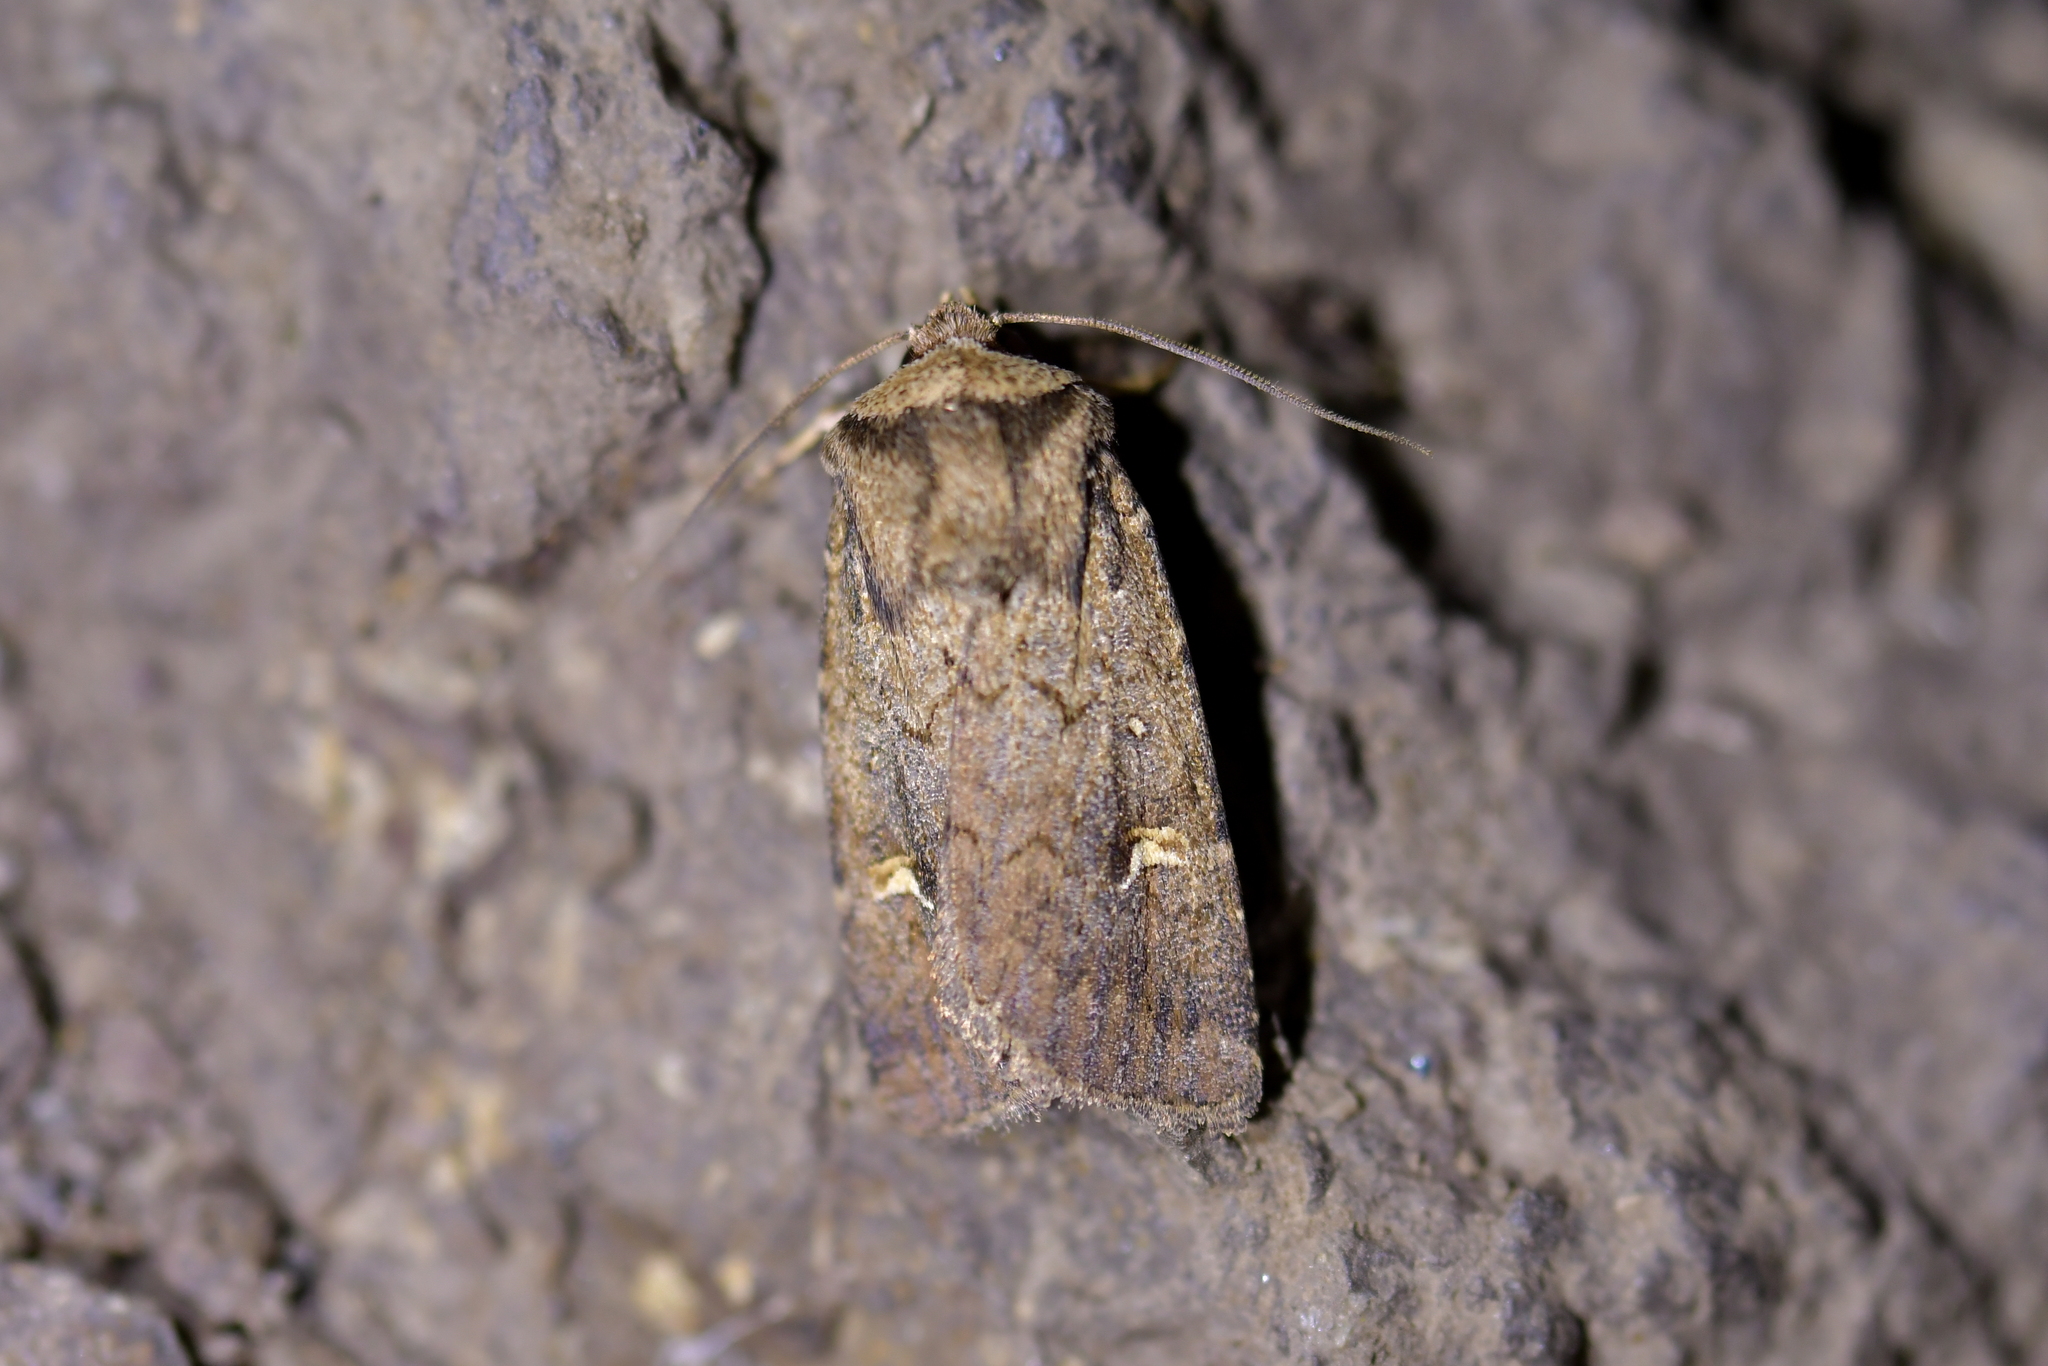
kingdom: Animalia
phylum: Arthropoda
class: Insecta
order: Lepidoptera
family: Noctuidae
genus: Proteuxoa
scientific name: Proteuxoa tetronycha
